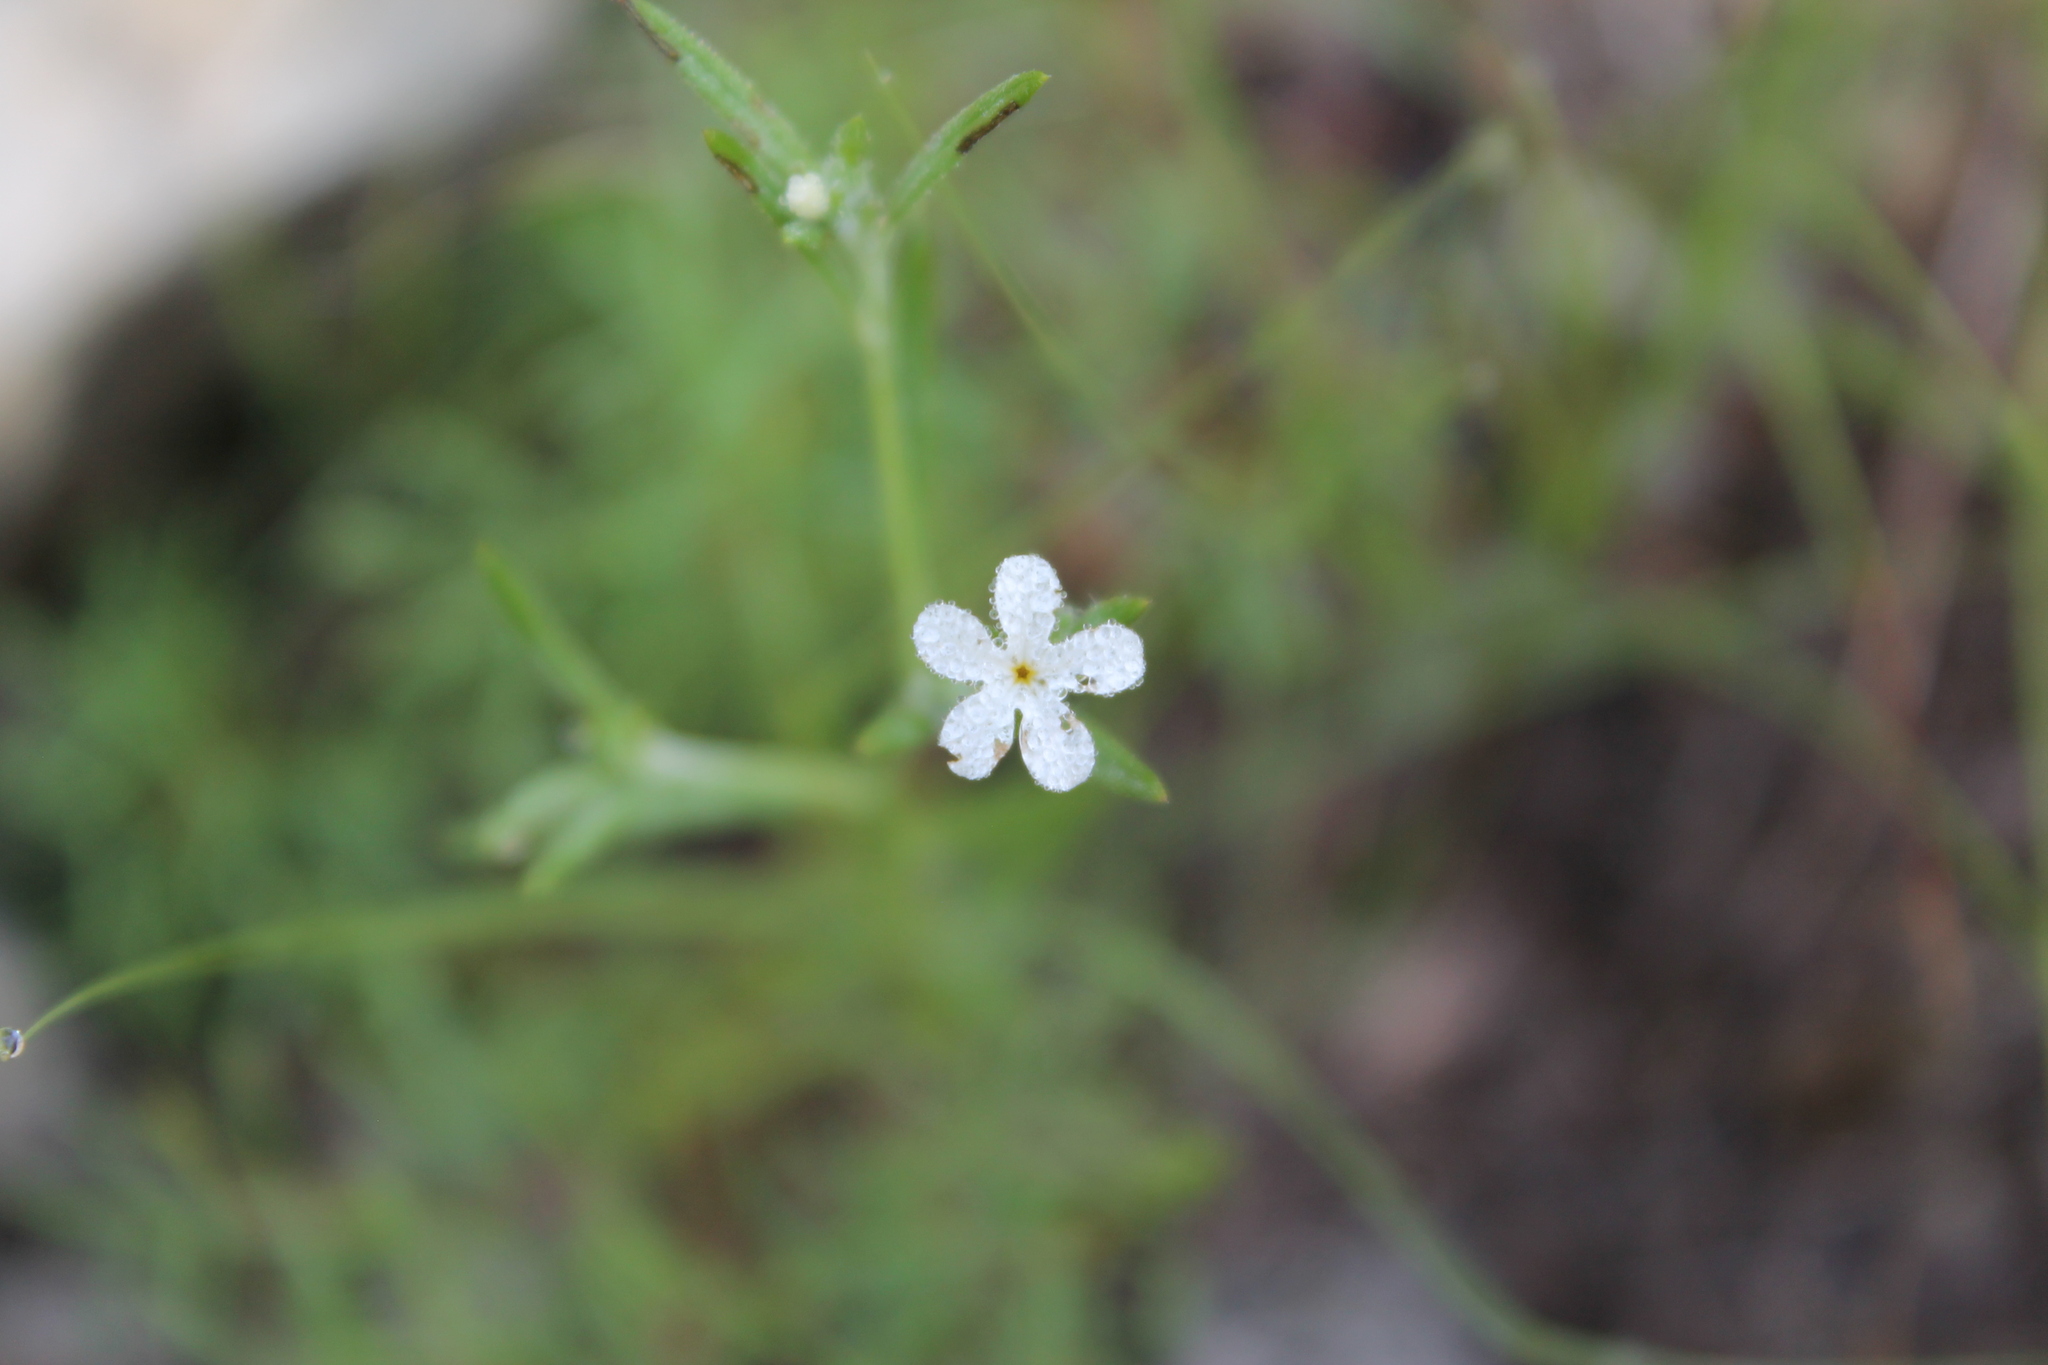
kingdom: Plantae
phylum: Tracheophyta
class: Magnoliopsida
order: Boraginales
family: Heliotropiaceae
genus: Euploca
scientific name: Euploca tenella
